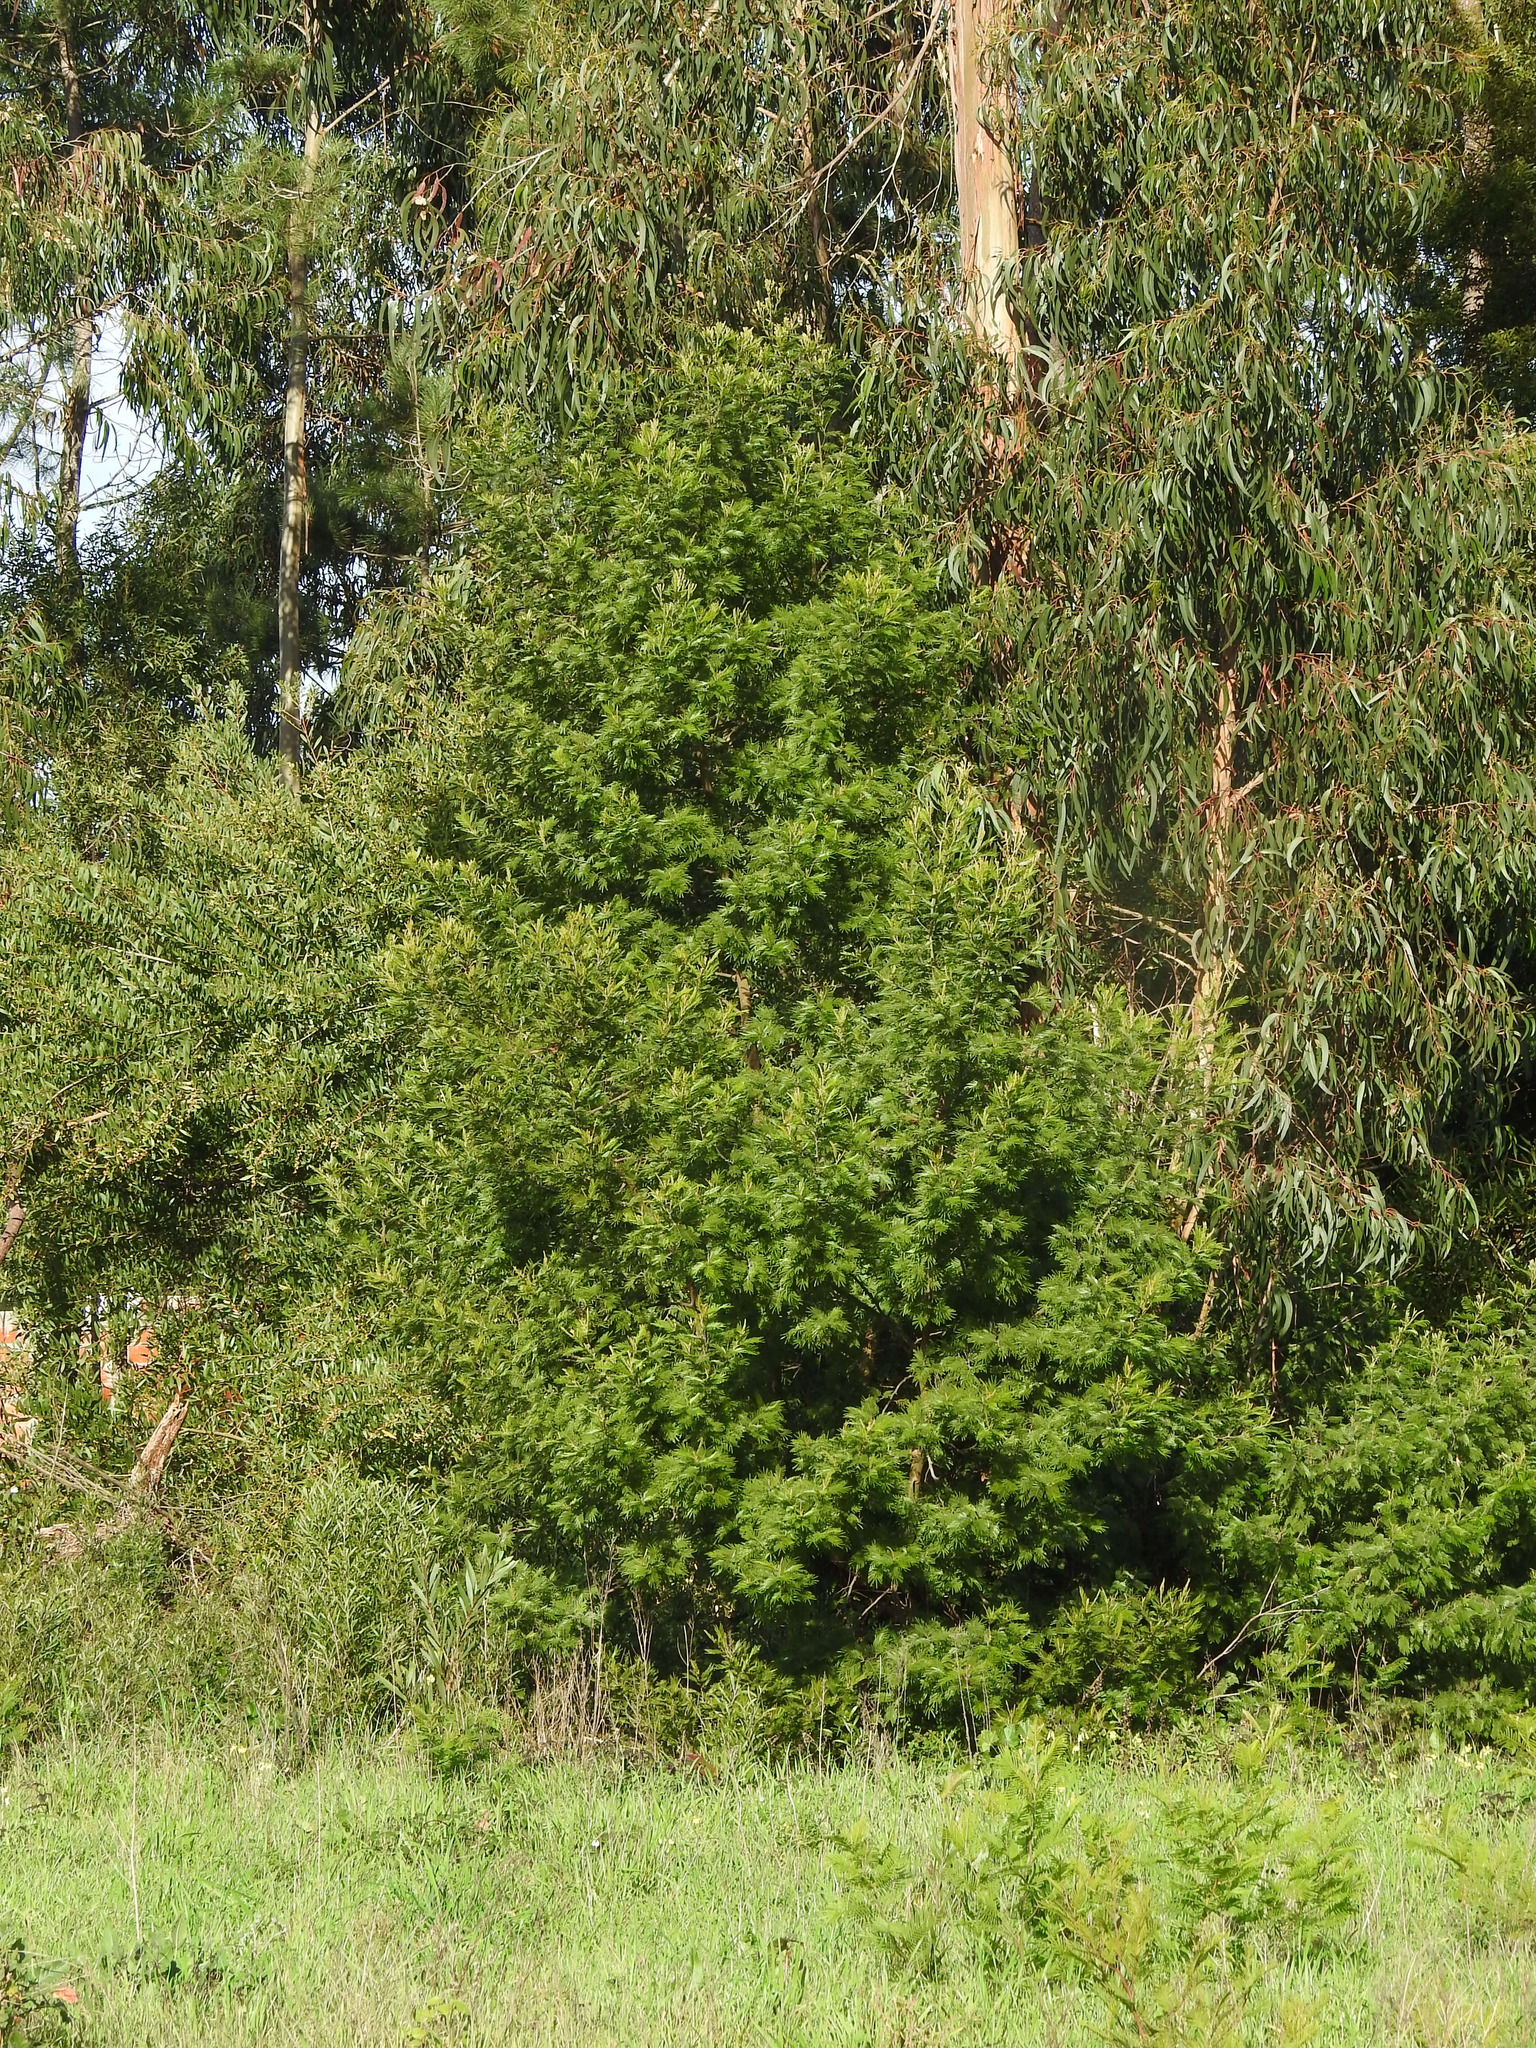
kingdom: Plantae
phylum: Tracheophyta
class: Magnoliopsida
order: Fabales
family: Fabaceae
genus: Acacia
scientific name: Acacia mearnsii
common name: Black wattle
